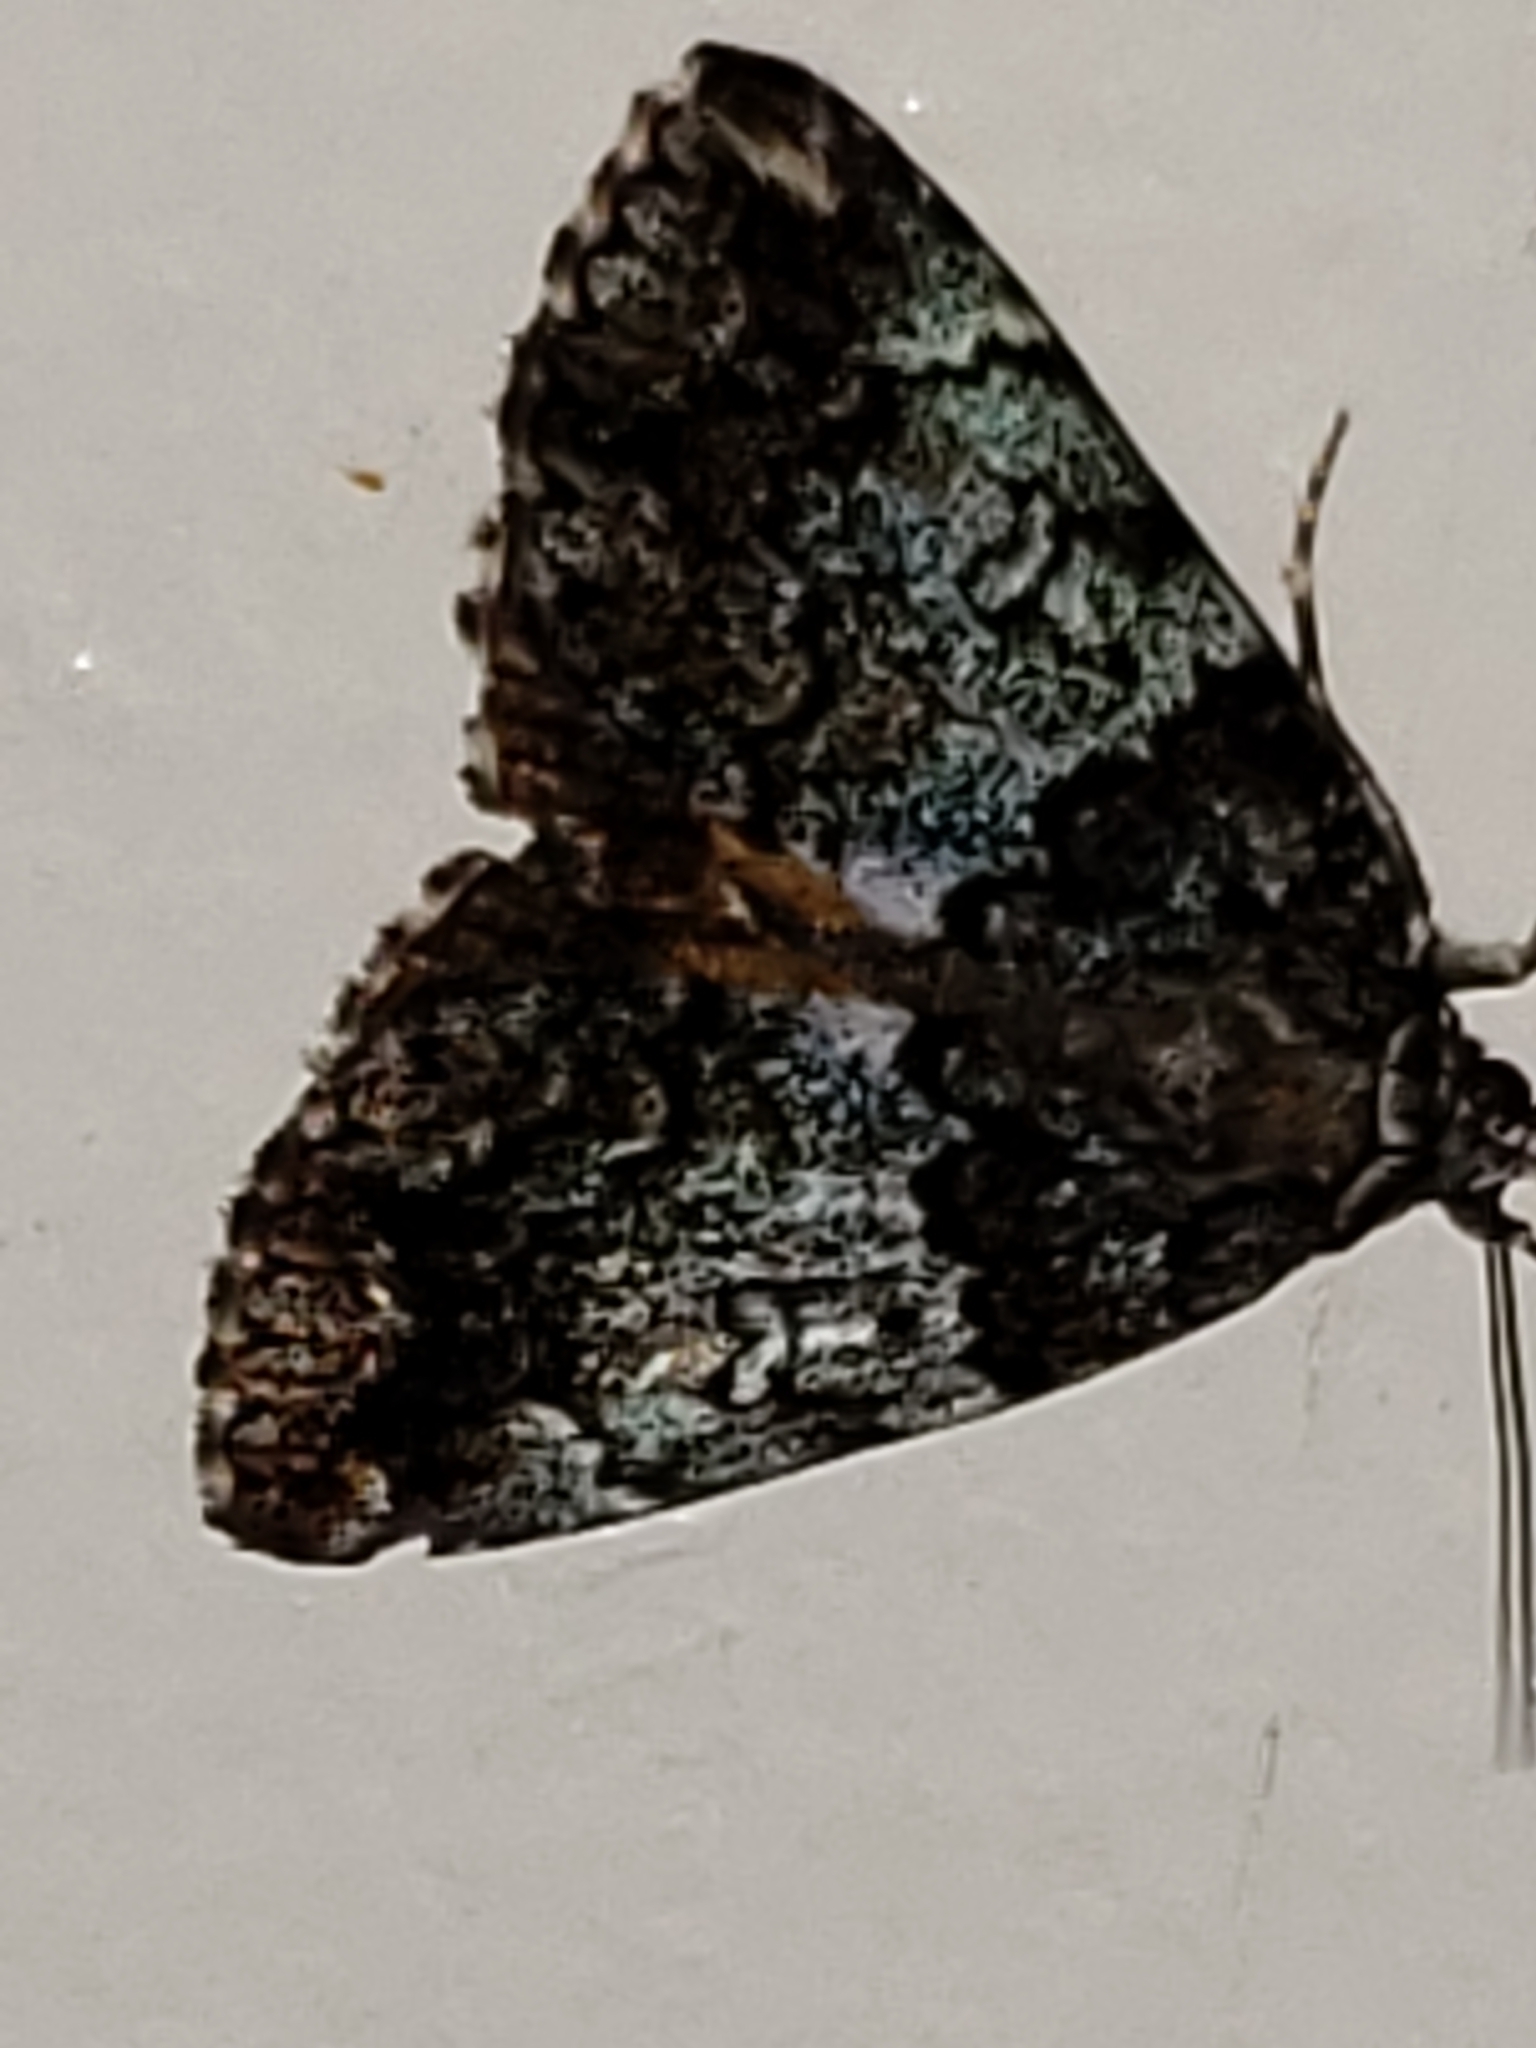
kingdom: Animalia
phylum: Arthropoda
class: Insecta
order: Lepidoptera
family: Erebidae
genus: Allotria
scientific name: Allotria elonympha
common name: False underwing
